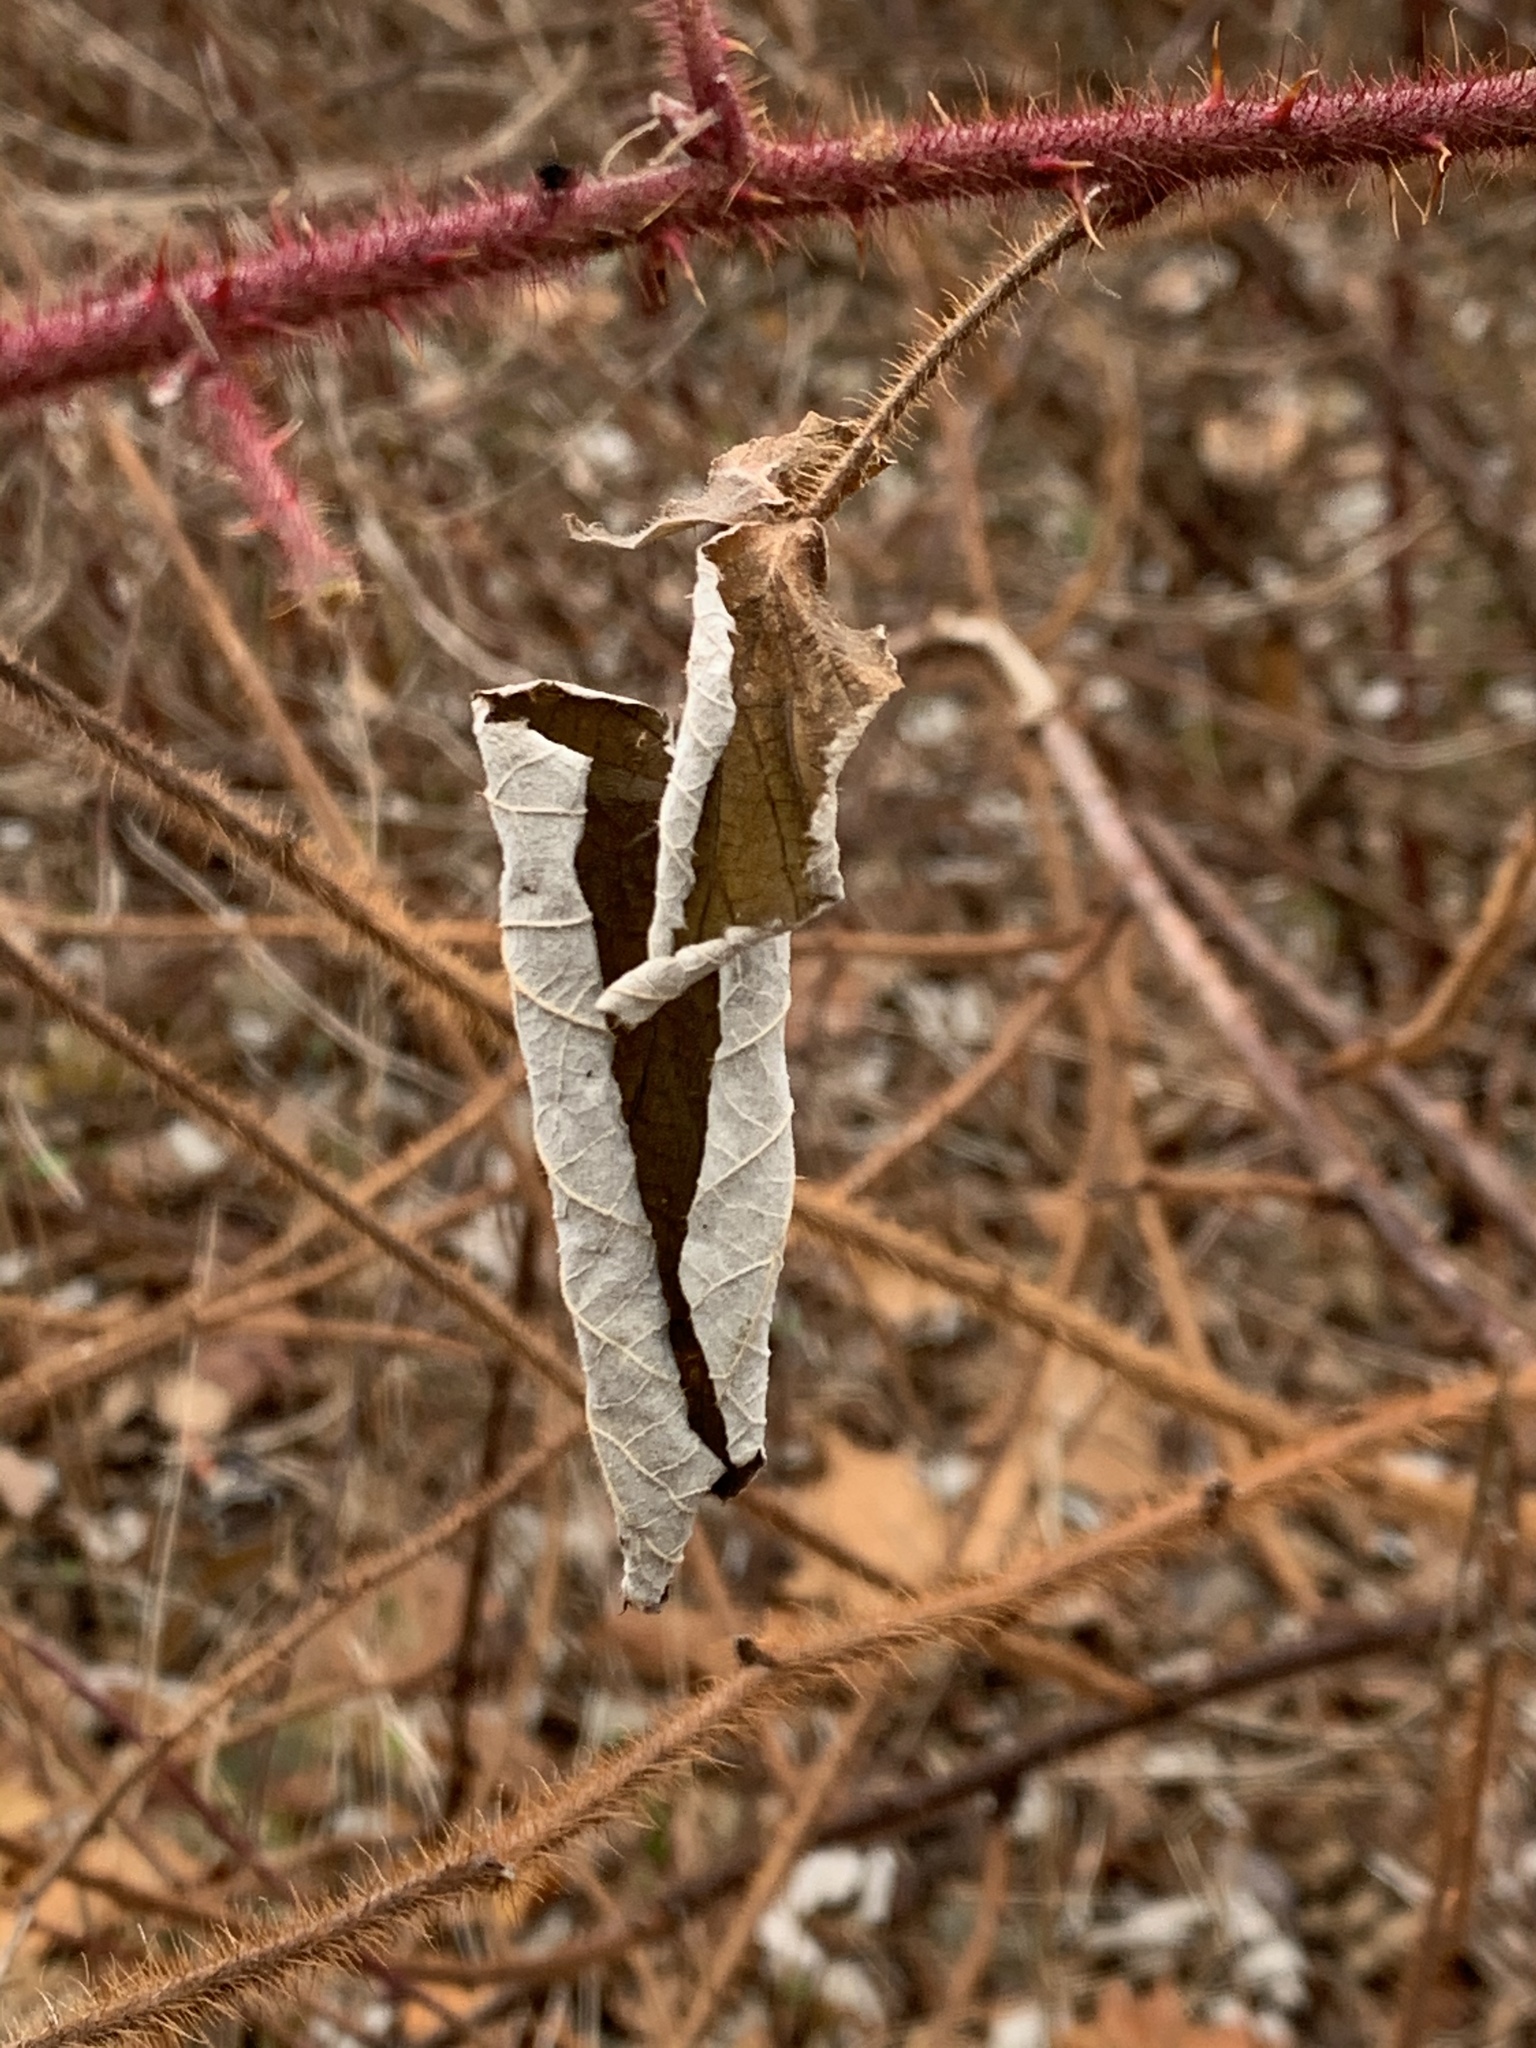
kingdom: Plantae
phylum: Tracheophyta
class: Magnoliopsida
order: Rosales
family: Rosaceae
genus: Rubus
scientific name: Rubus phoenicolasius
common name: Japanese wineberry
